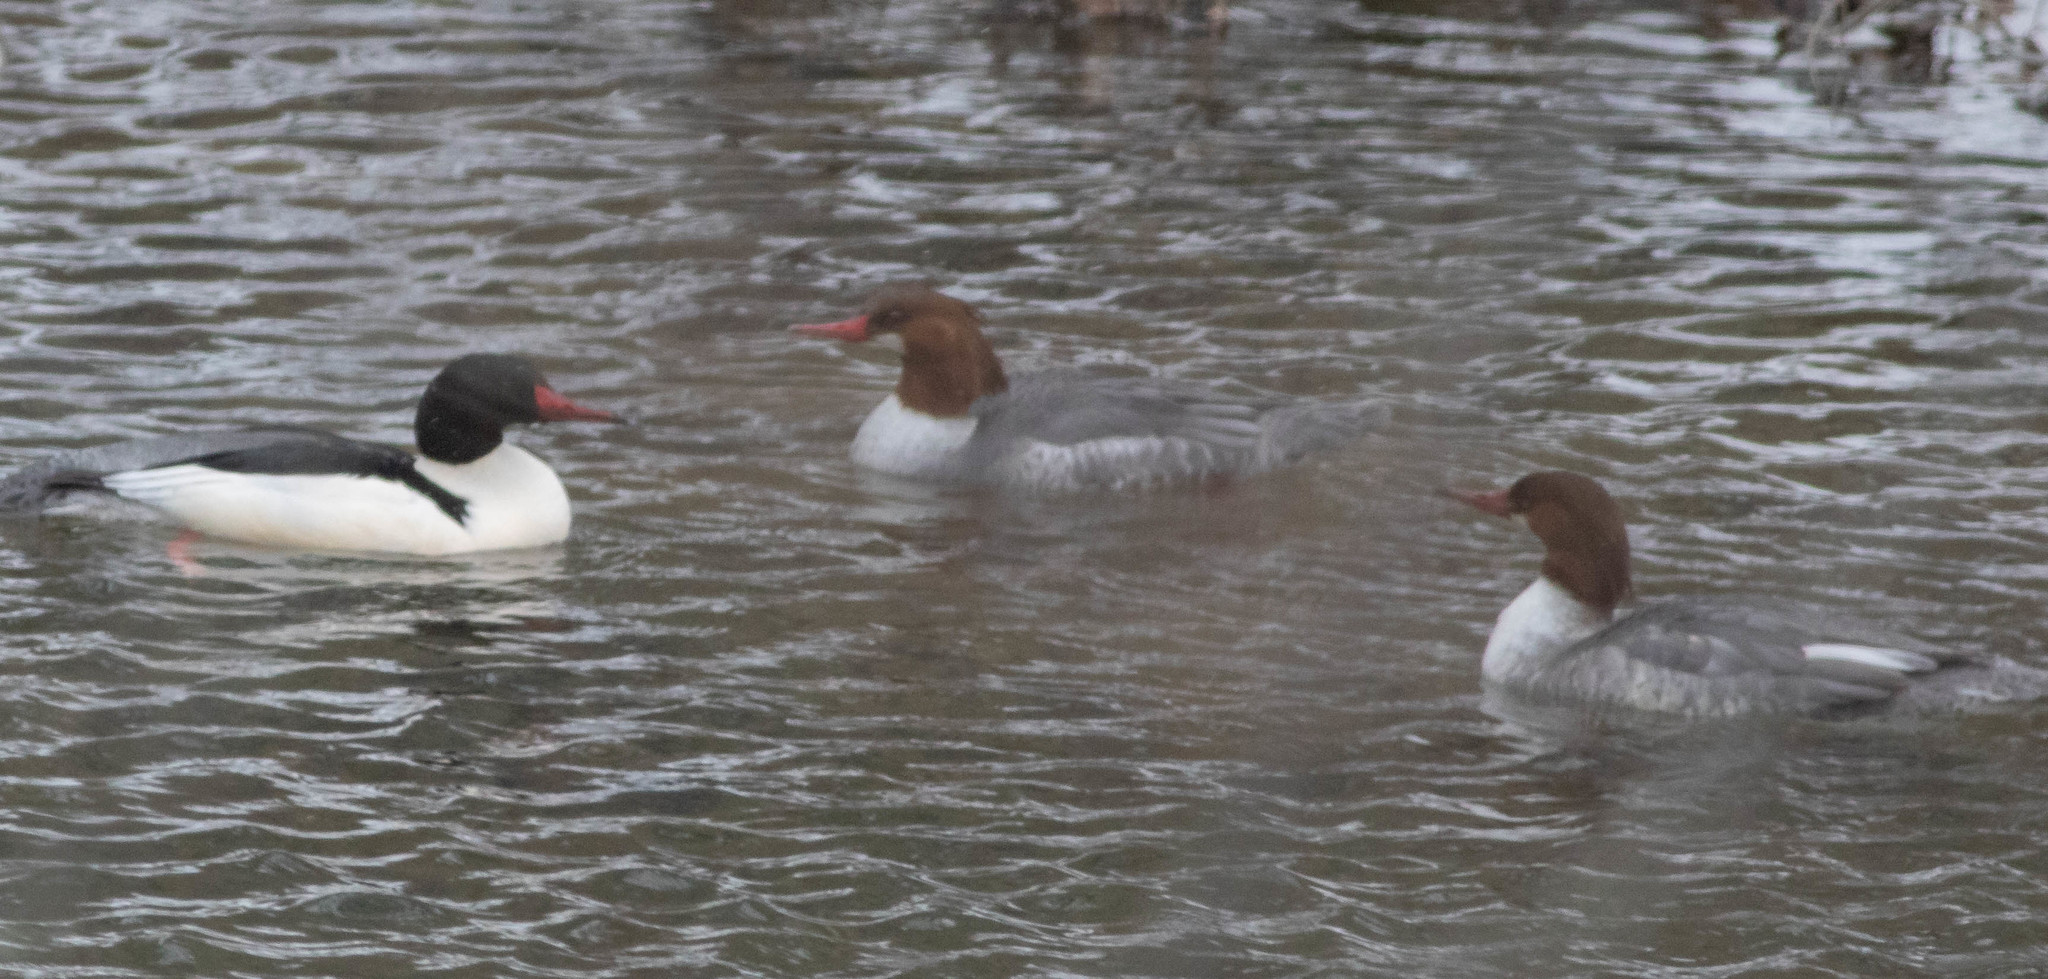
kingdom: Animalia
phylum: Chordata
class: Aves
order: Anseriformes
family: Anatidae
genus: Mergus
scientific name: Mergus merganser
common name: Common merganser
